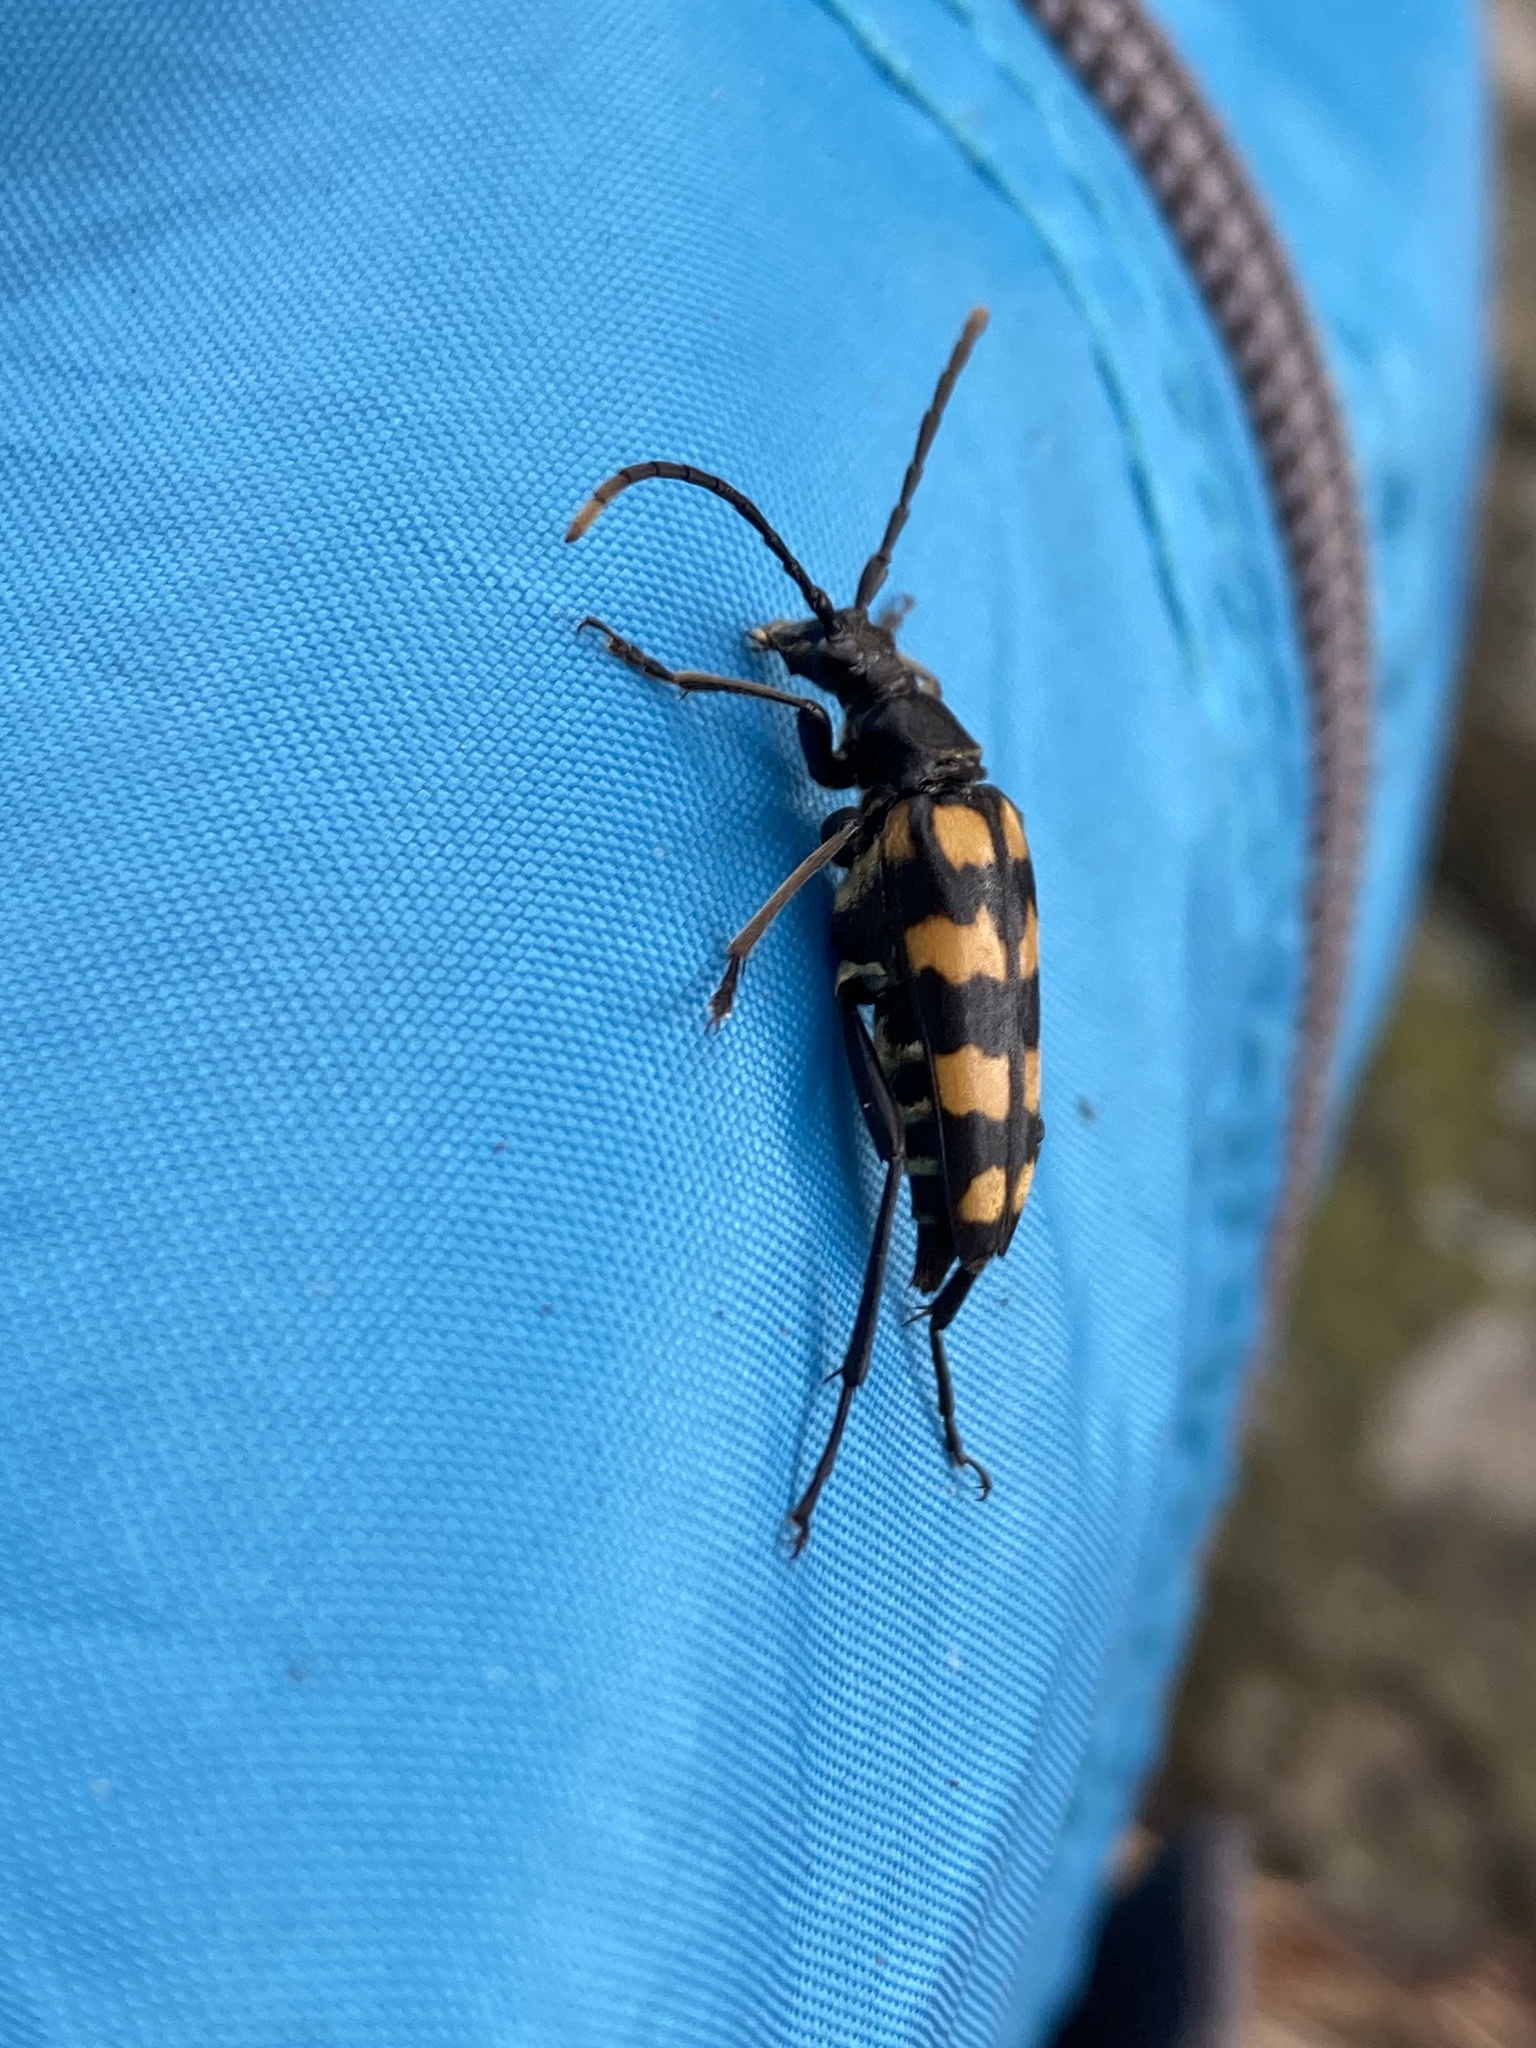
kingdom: Animalia
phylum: Arthropoda
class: Insecta
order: Coleoptera
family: Cerambycidae
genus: Leptura
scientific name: Leptura quadrifasciata
